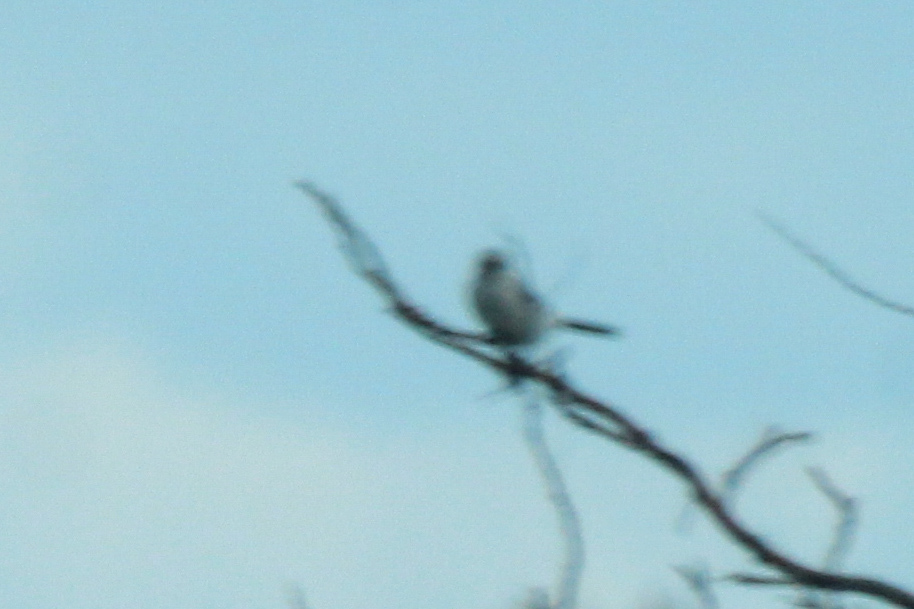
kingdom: Animalia
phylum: Chordata
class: Aves
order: Passeriformes
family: Laniidae
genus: Lanius
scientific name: Lanius excubitor
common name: Great grey shrike
